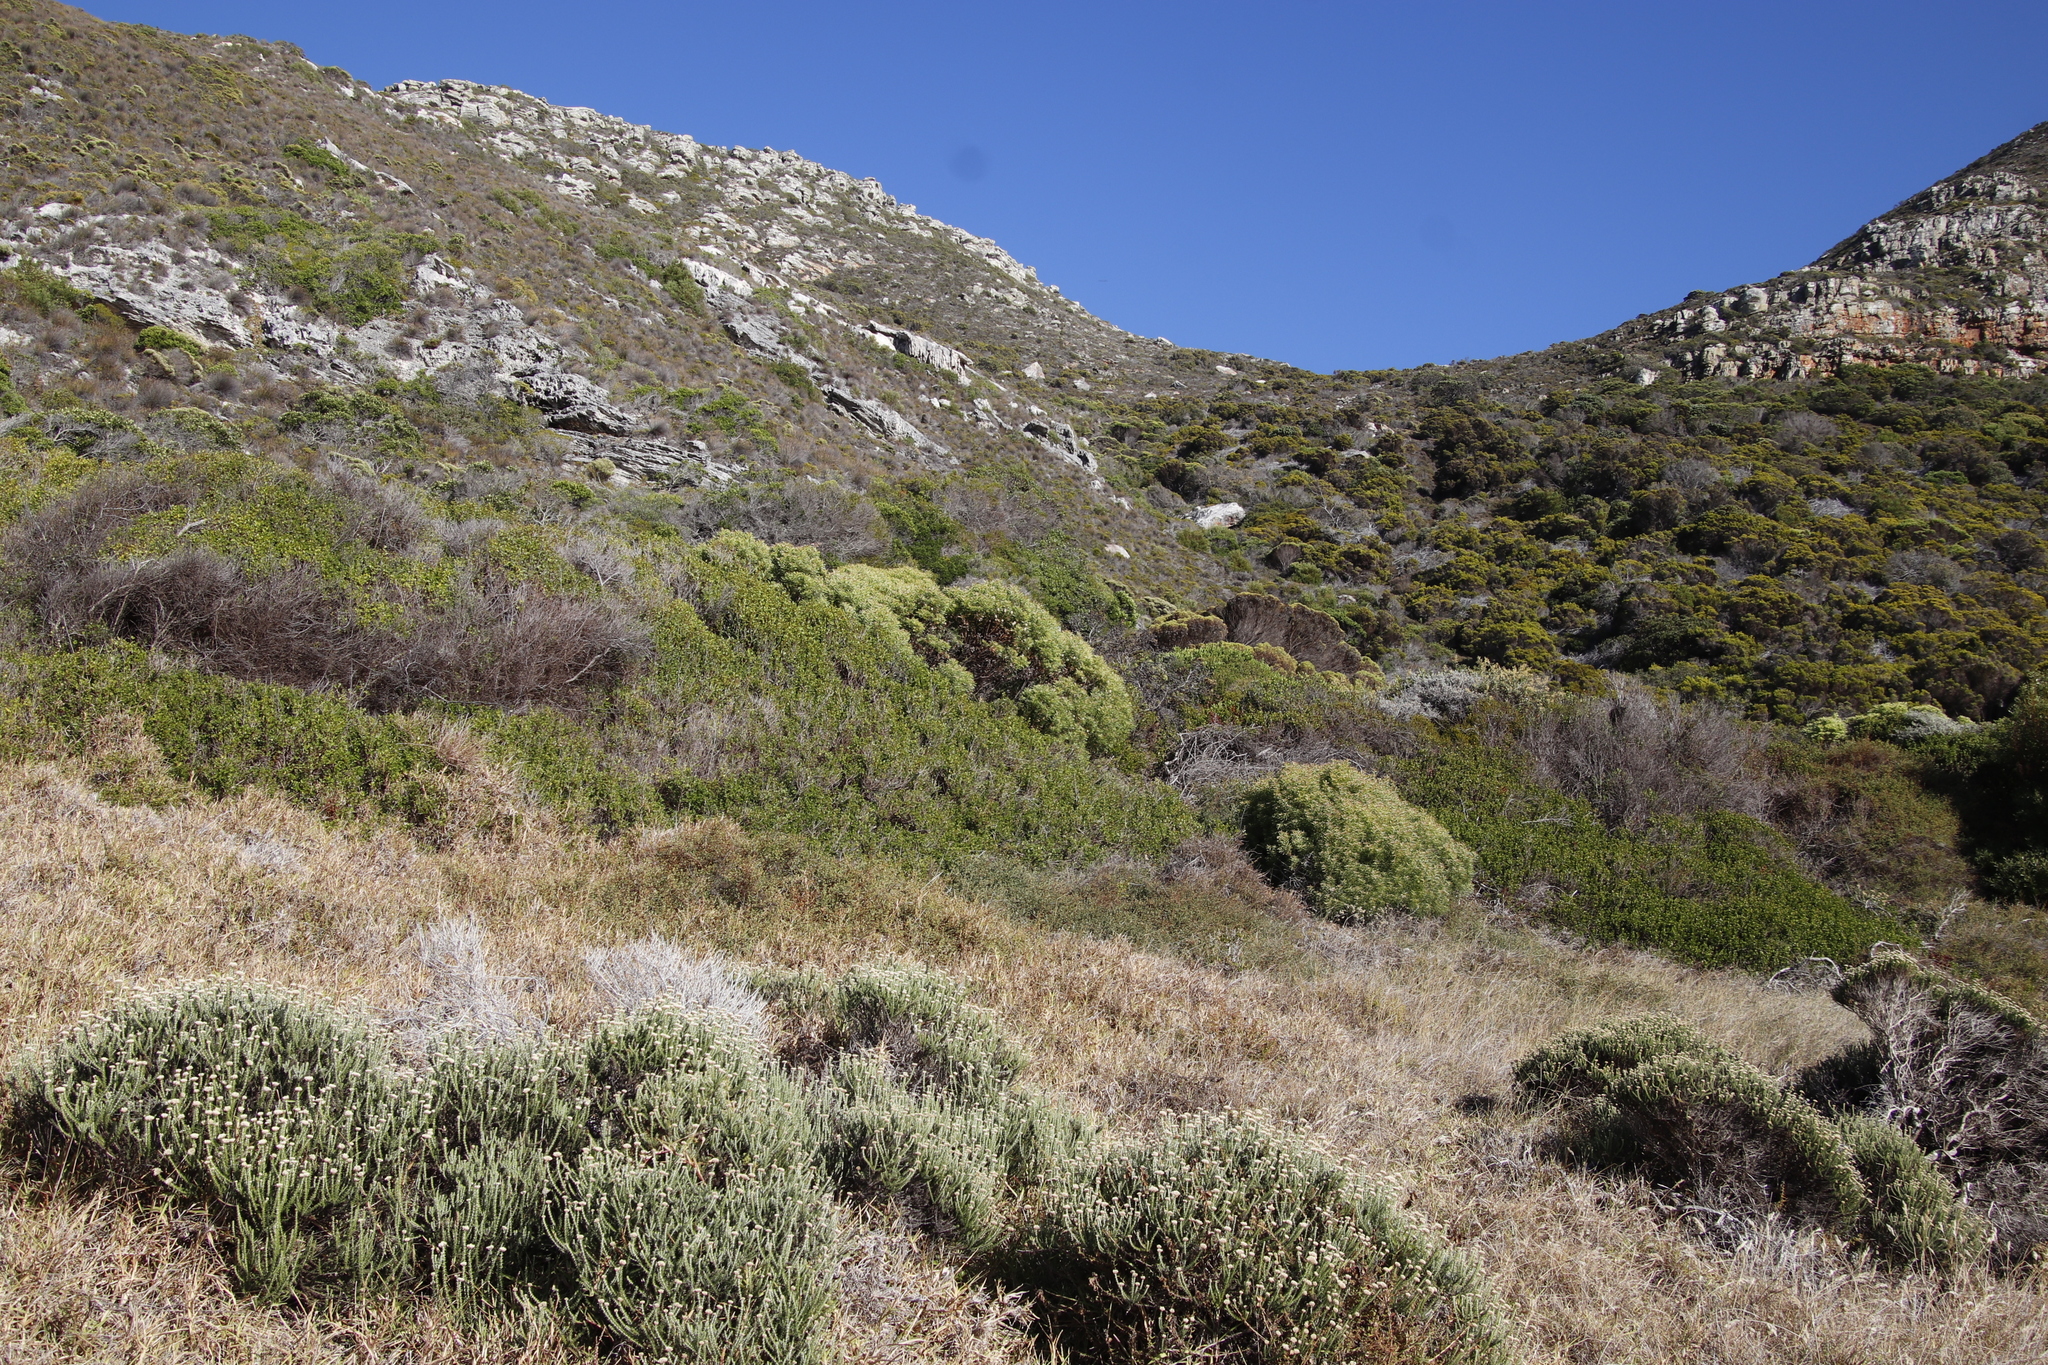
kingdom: Plantae
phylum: Tracheophyta
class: Magnoliopsida
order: Proteales
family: Proteaceae
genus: Leucadendron
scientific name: Leucadendron coniferum
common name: Dune conebush
